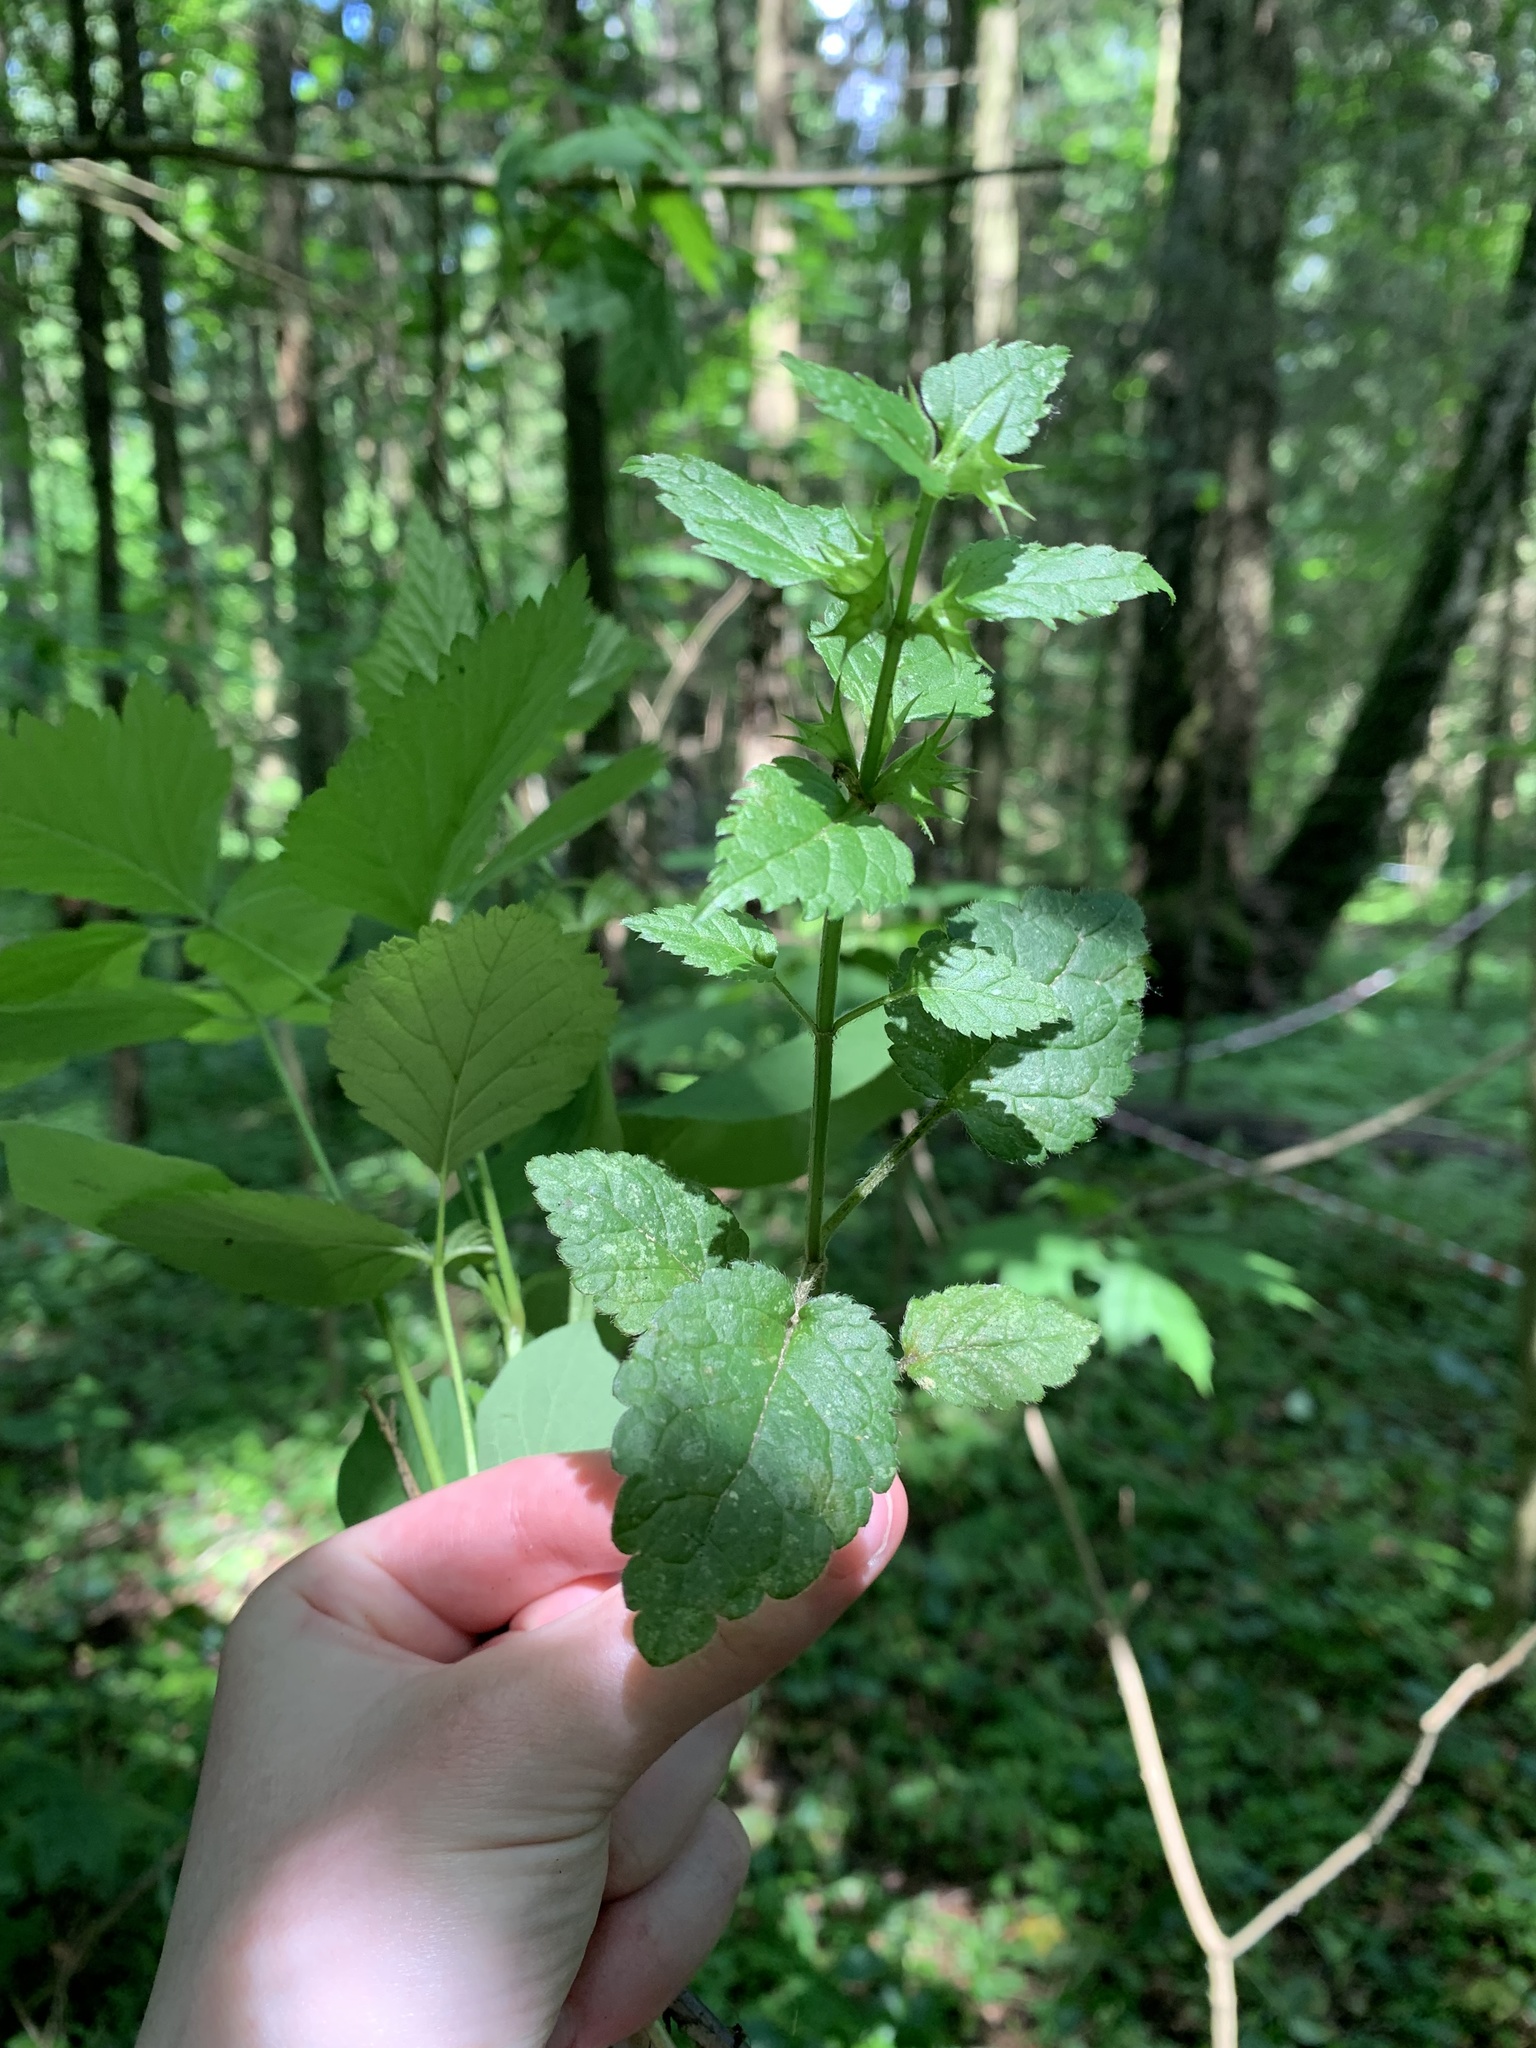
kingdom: Plantae
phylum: Tracheophyta
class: Magnoliopsida
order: Lamiales
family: Lamiaceae
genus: Lamium
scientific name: Lamium galeobdolon
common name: Yellow archangel
